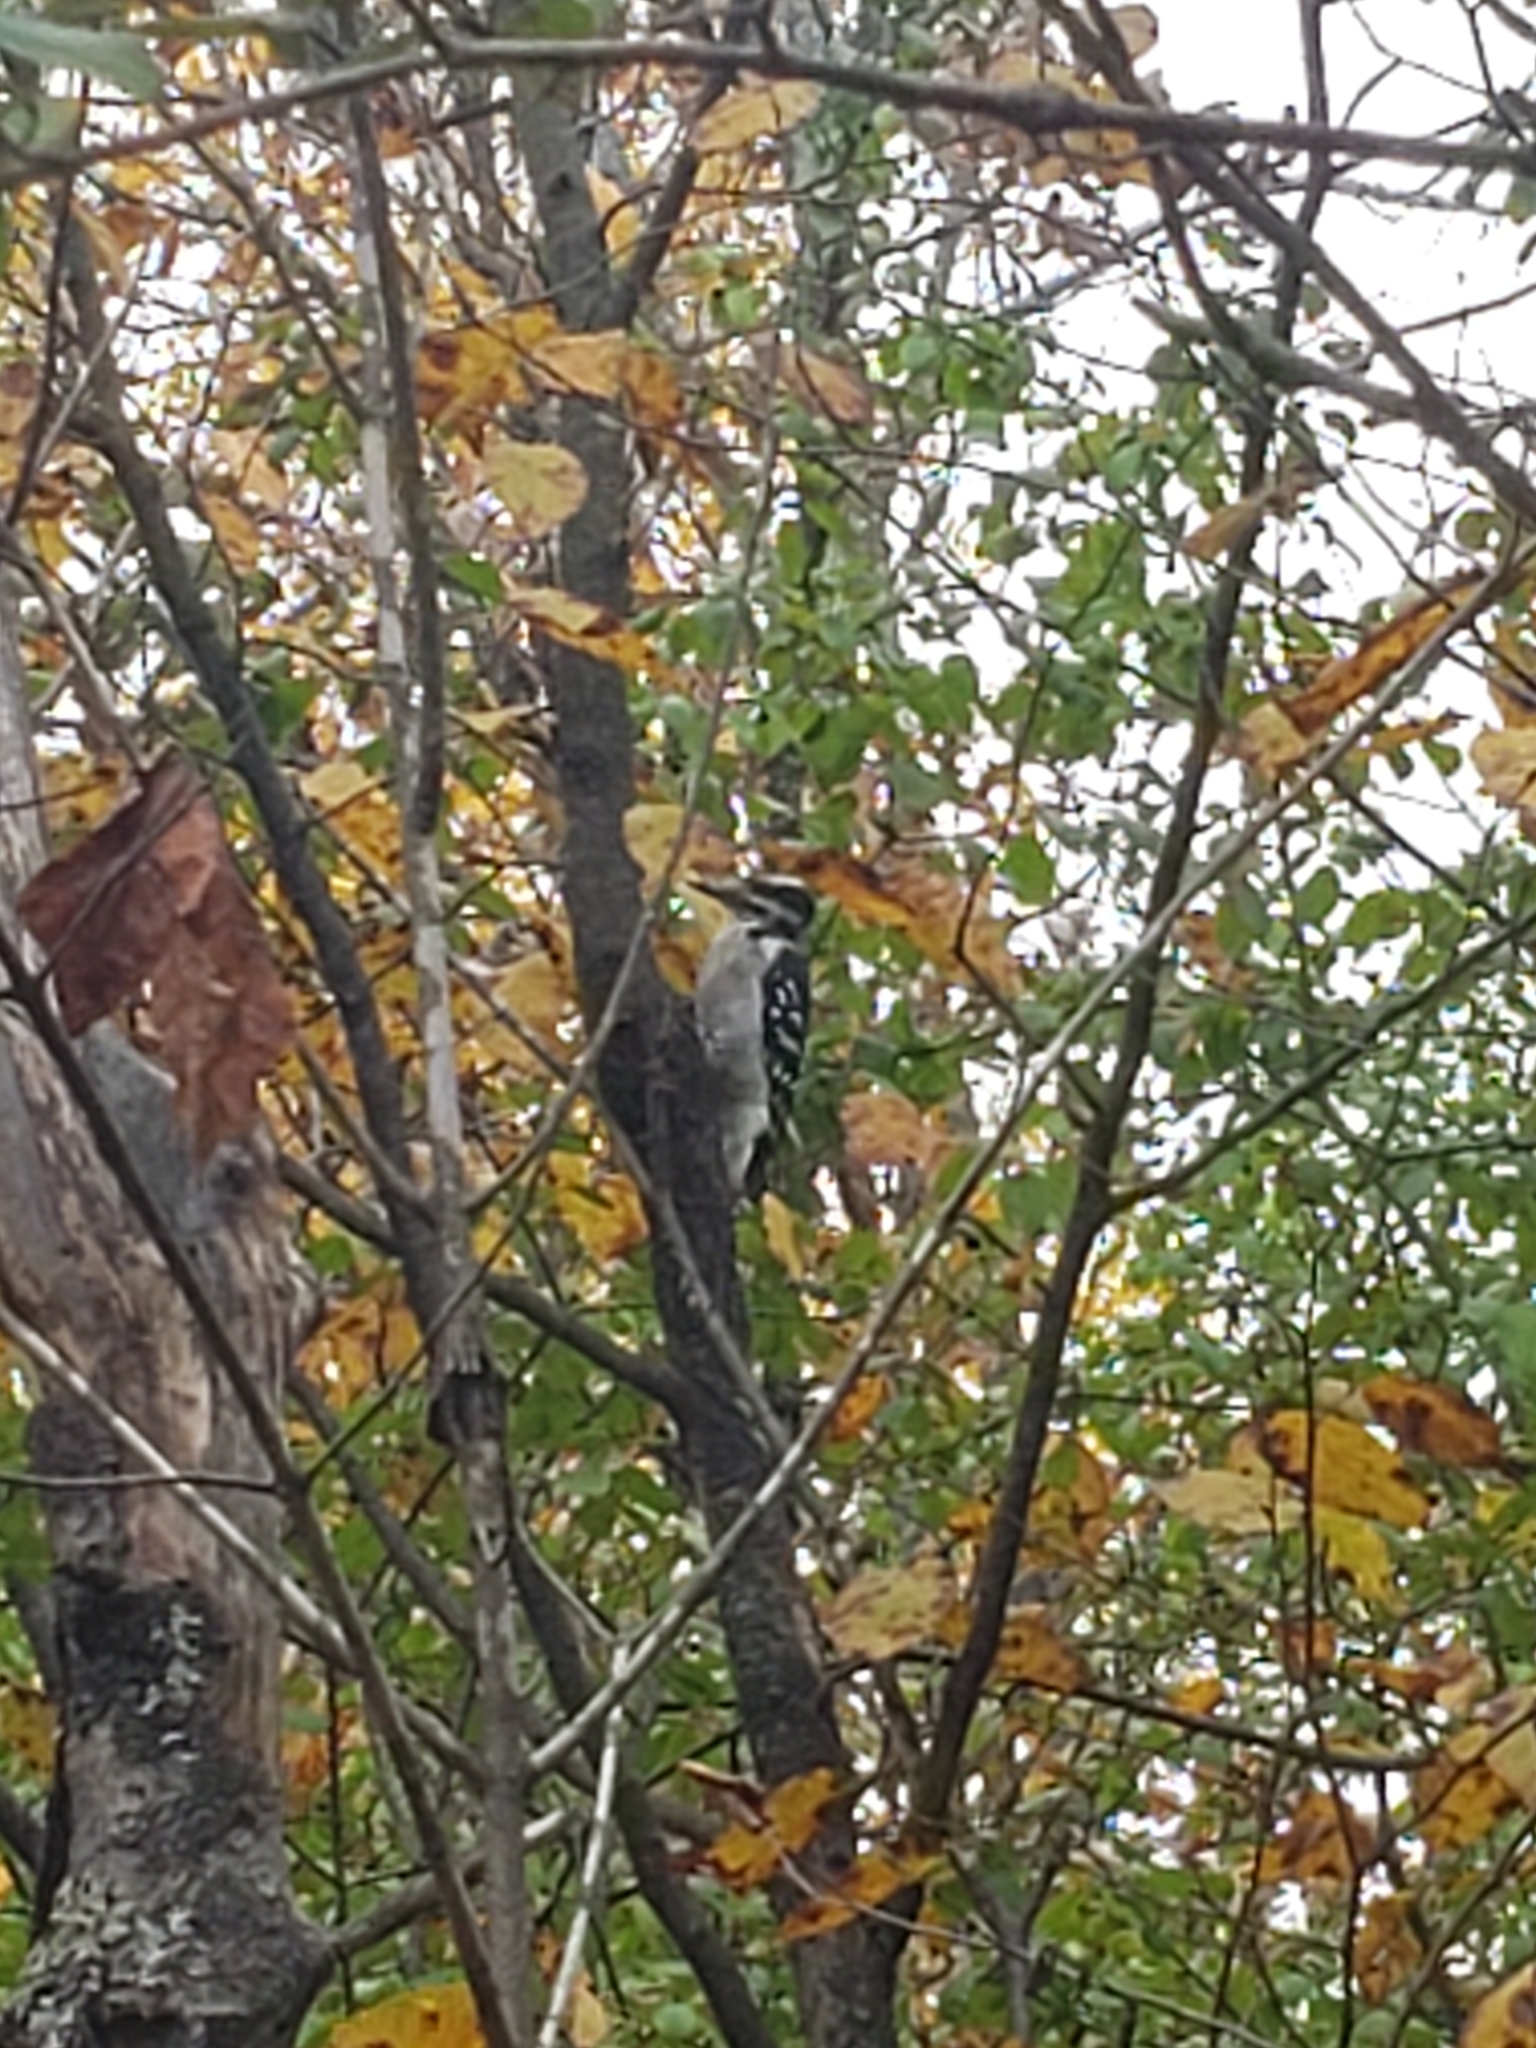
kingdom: Animalia
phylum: Chordata
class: Aves
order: Piciformes
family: Picidae
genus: Leuconotopicus
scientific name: Leuconotopicus villosus
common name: Hairy woodpecker
